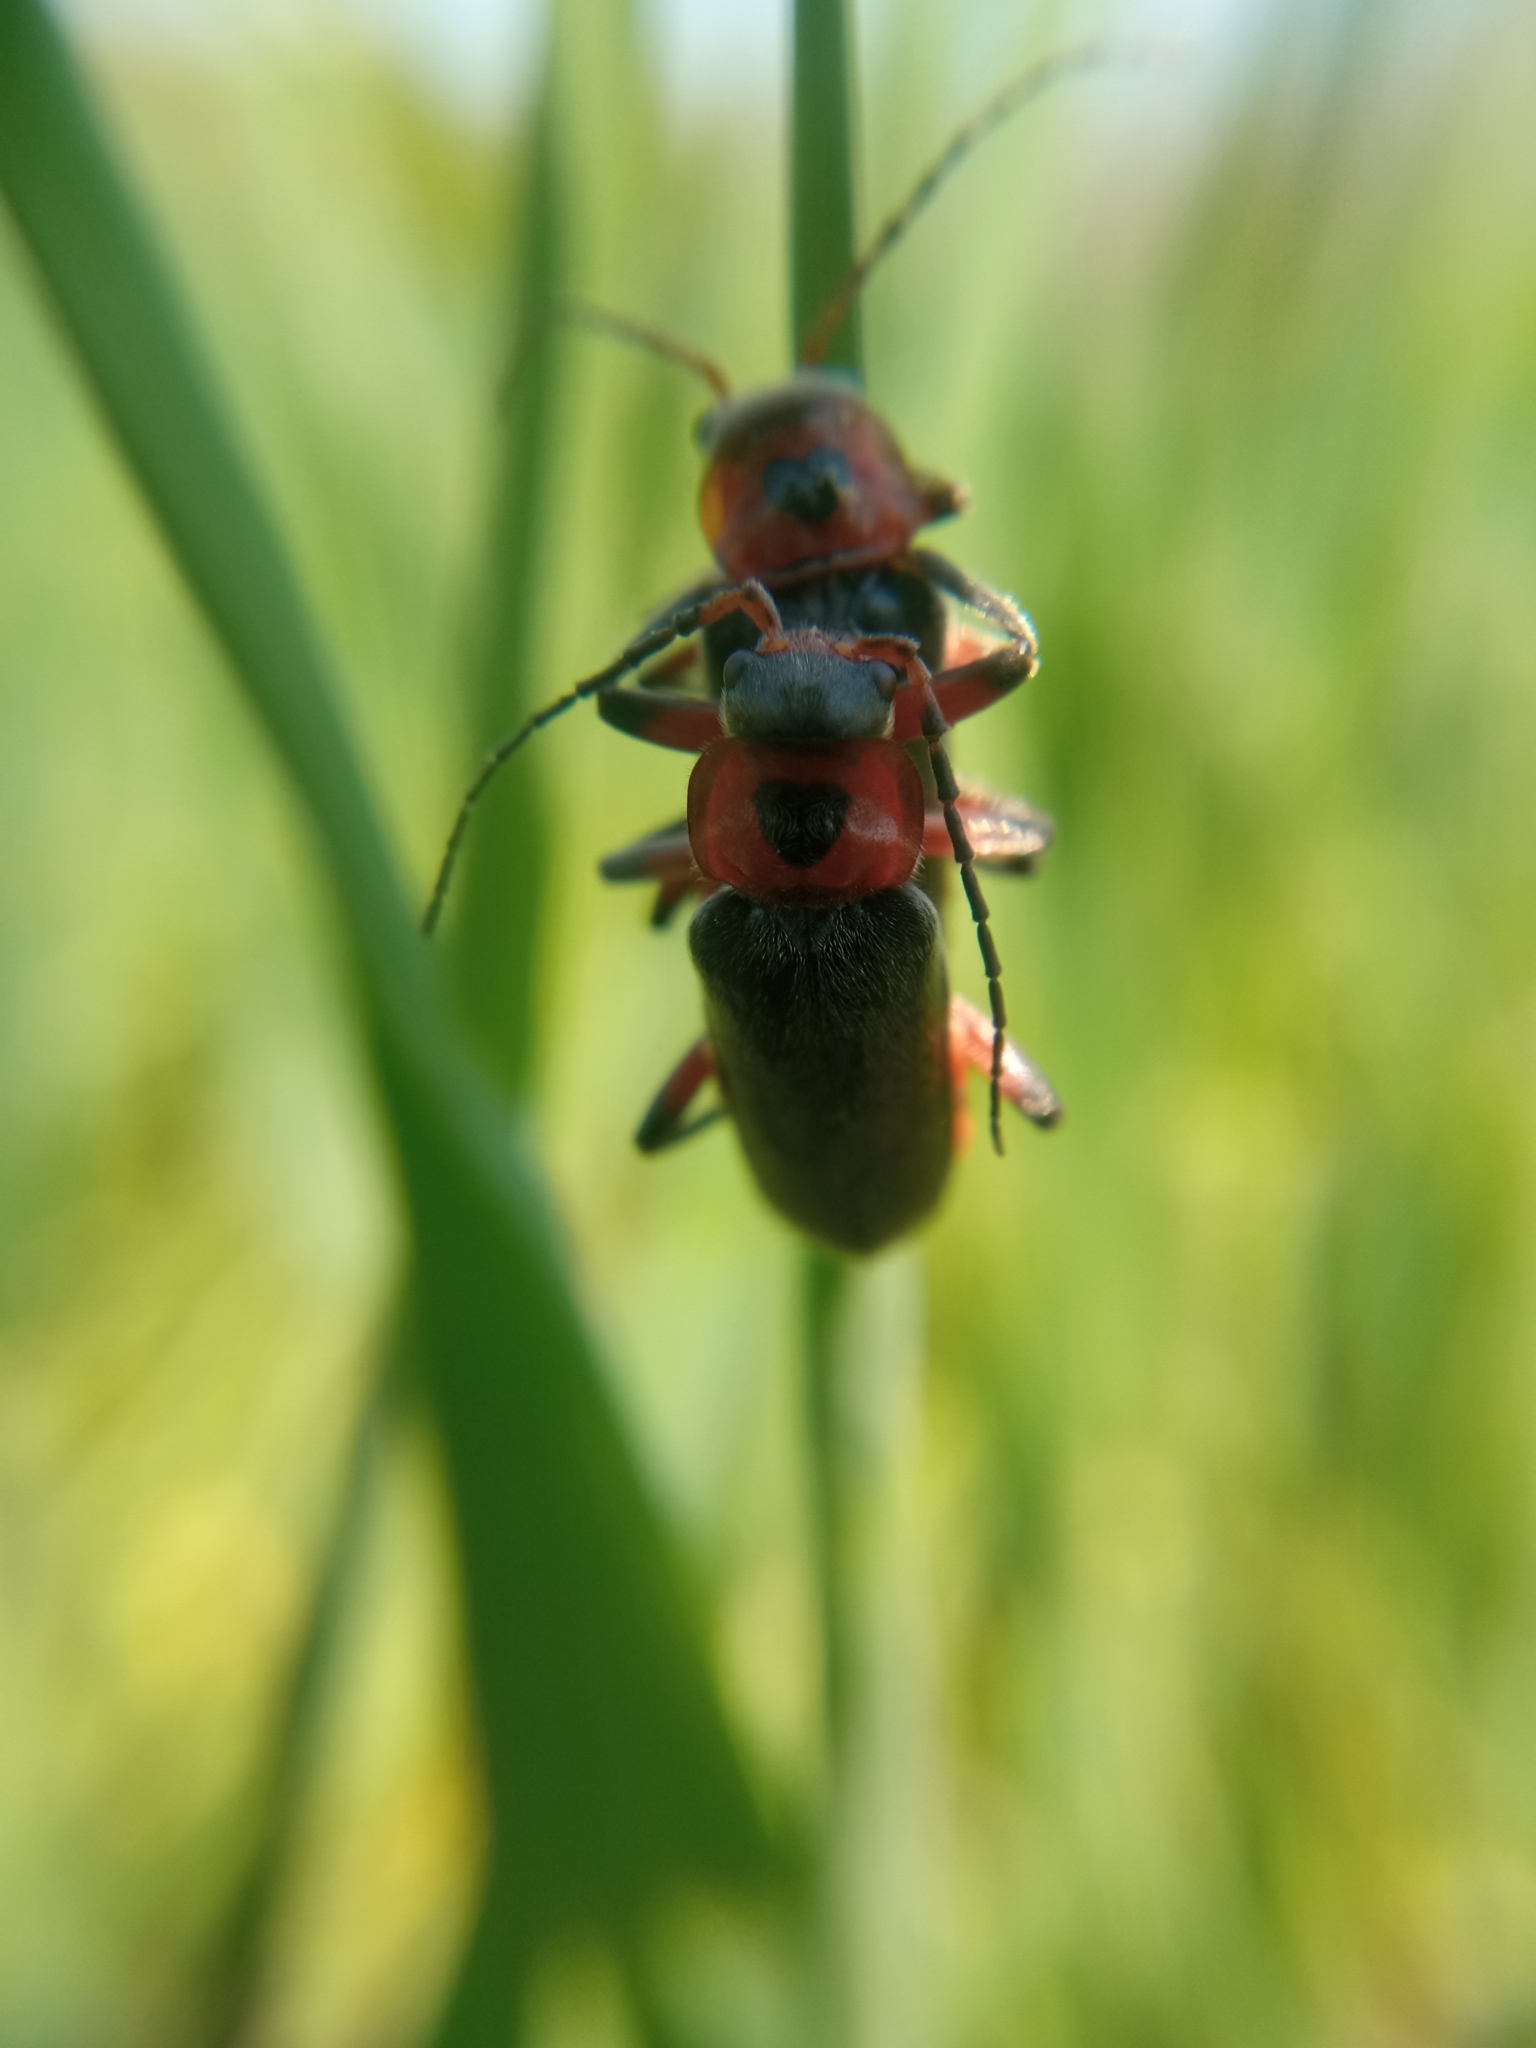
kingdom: Animalia
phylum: Arthropoda
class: Insecta
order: Coleoptera
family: Cantharidae
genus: Cantharis
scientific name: Cantharis rustica
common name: Soldier beetle
